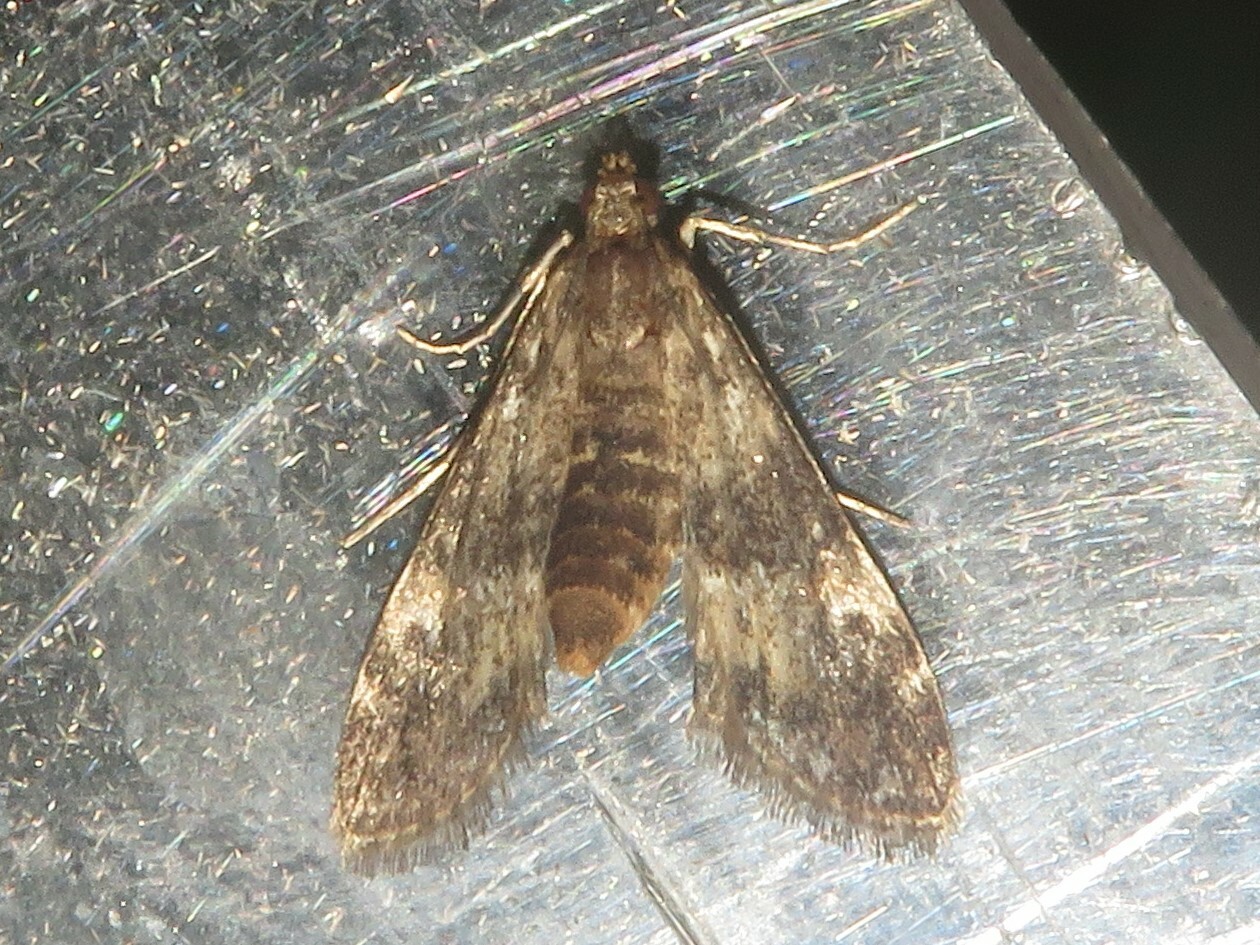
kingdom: Animalia
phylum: Arthropoda
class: Insecta
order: Lepidoptera
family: Crambidae
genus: Elophila
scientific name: Elophila obliteralis
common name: Waterlily leafcutter moth
